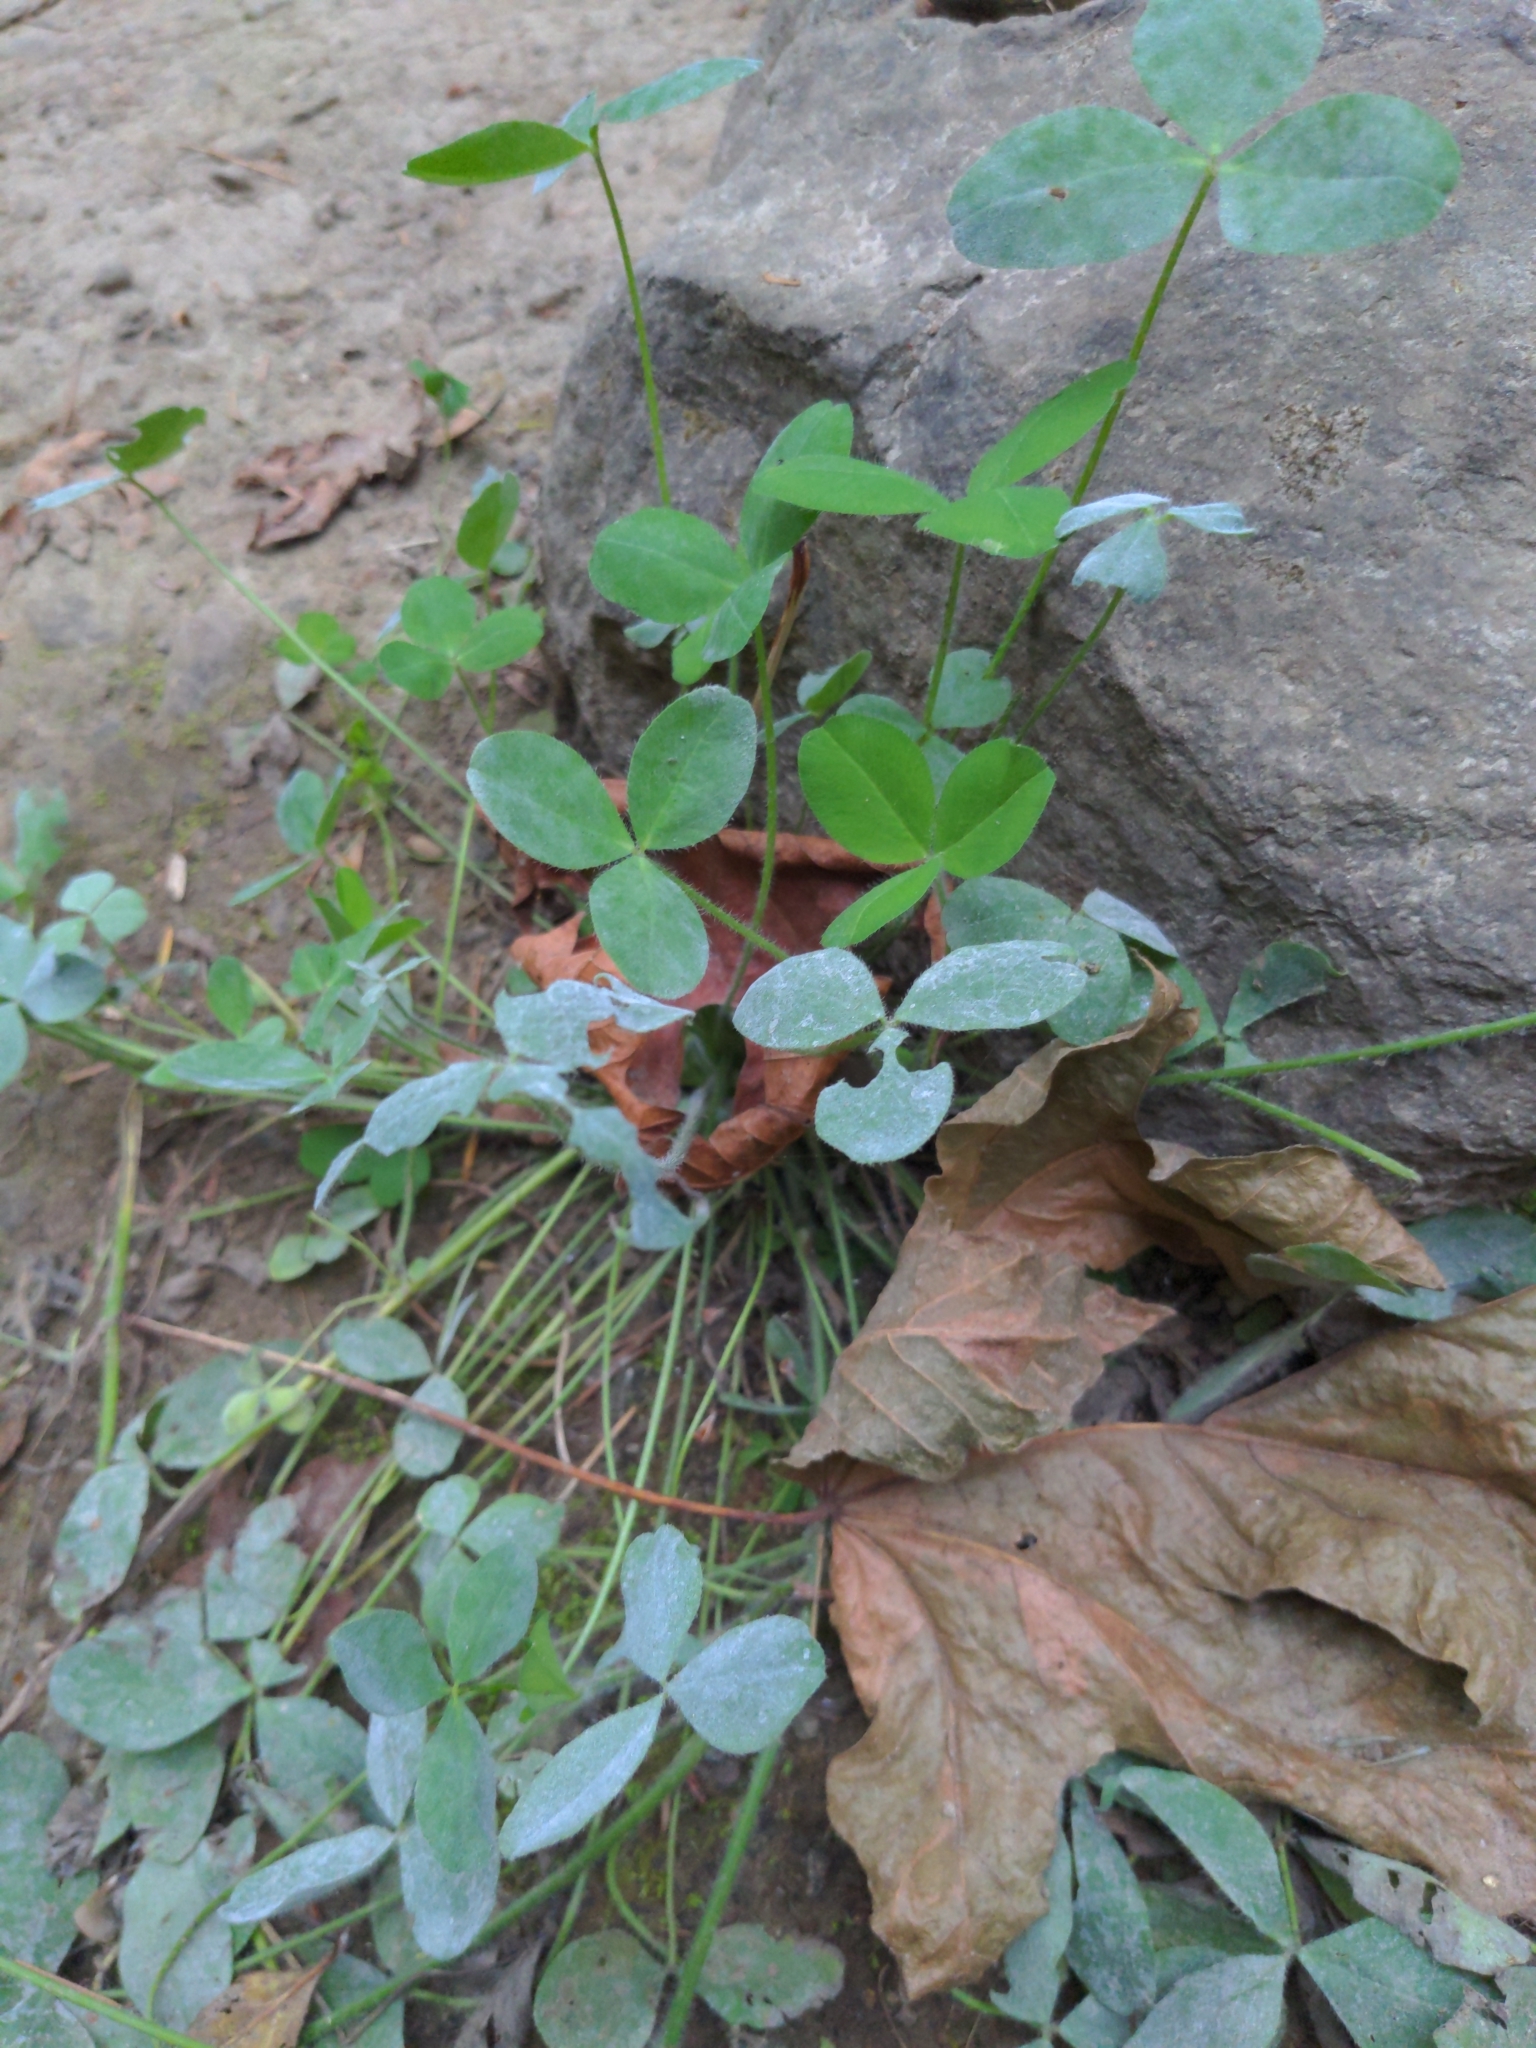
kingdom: Plantae
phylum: Tracheophyta
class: Magnoliopsida
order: Fabales
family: Fabaceae
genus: Trifolium
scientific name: Trifolium pratense
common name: Red clover
